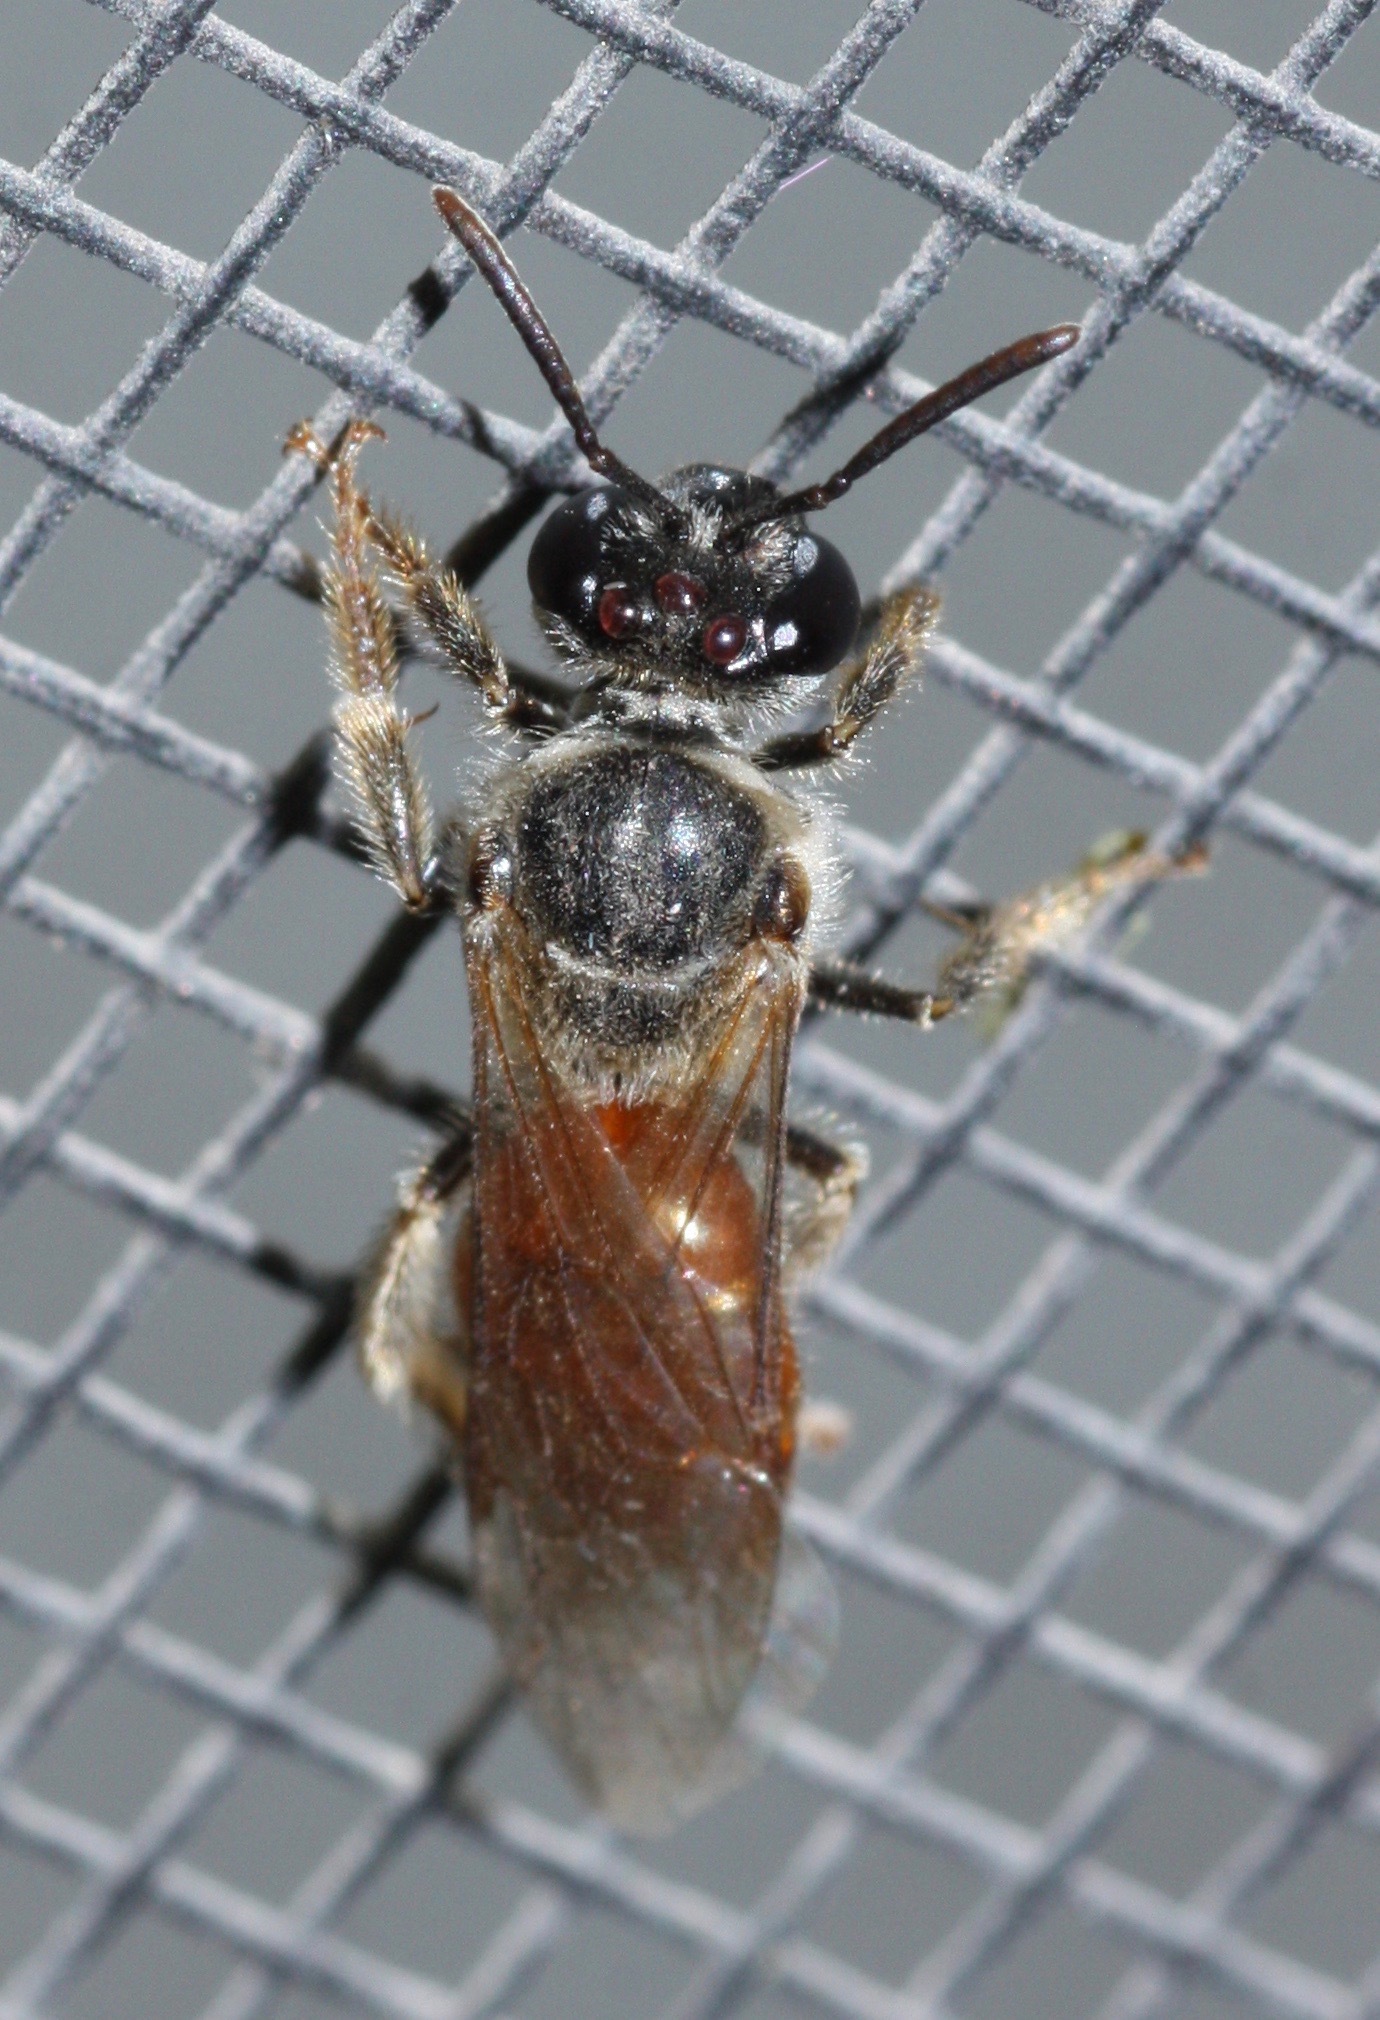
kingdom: Animalia
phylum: Arthropoda
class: Insecta
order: Hymenoptera
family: Halictidae
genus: Lasioglossum
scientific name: Lasioglossum texanum
